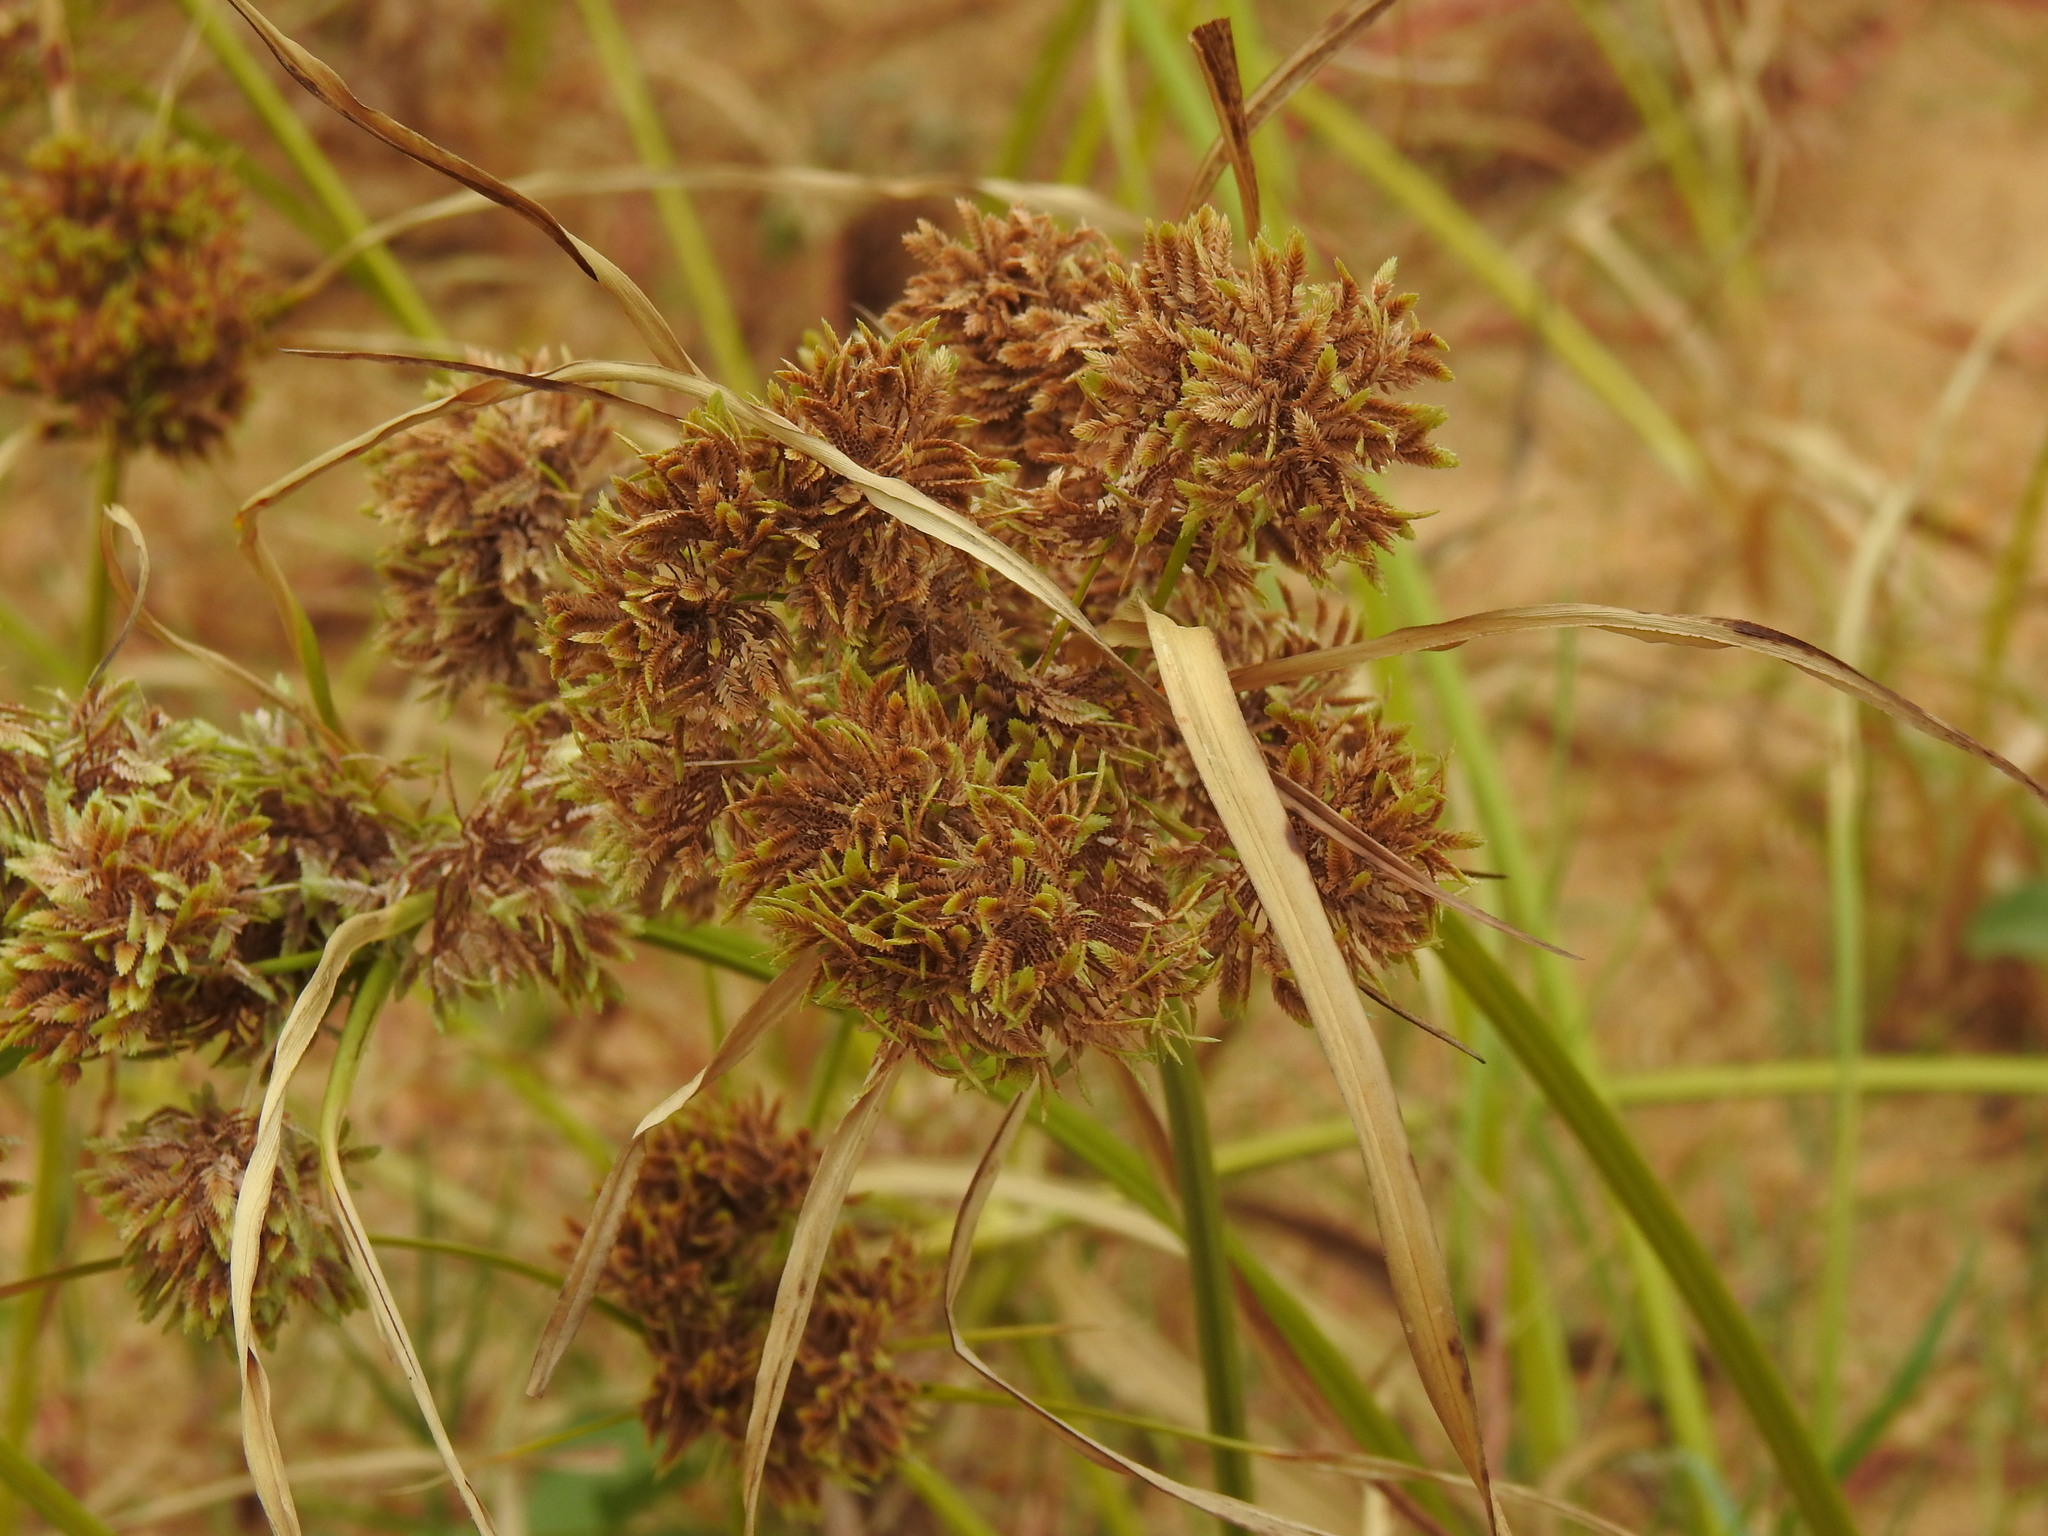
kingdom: Plantae
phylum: Tracheophyta
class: Liliopsida
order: Poales
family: Cyperaceae
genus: Cyperus
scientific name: Cyperus eragrostis
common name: Tall flatsedge
